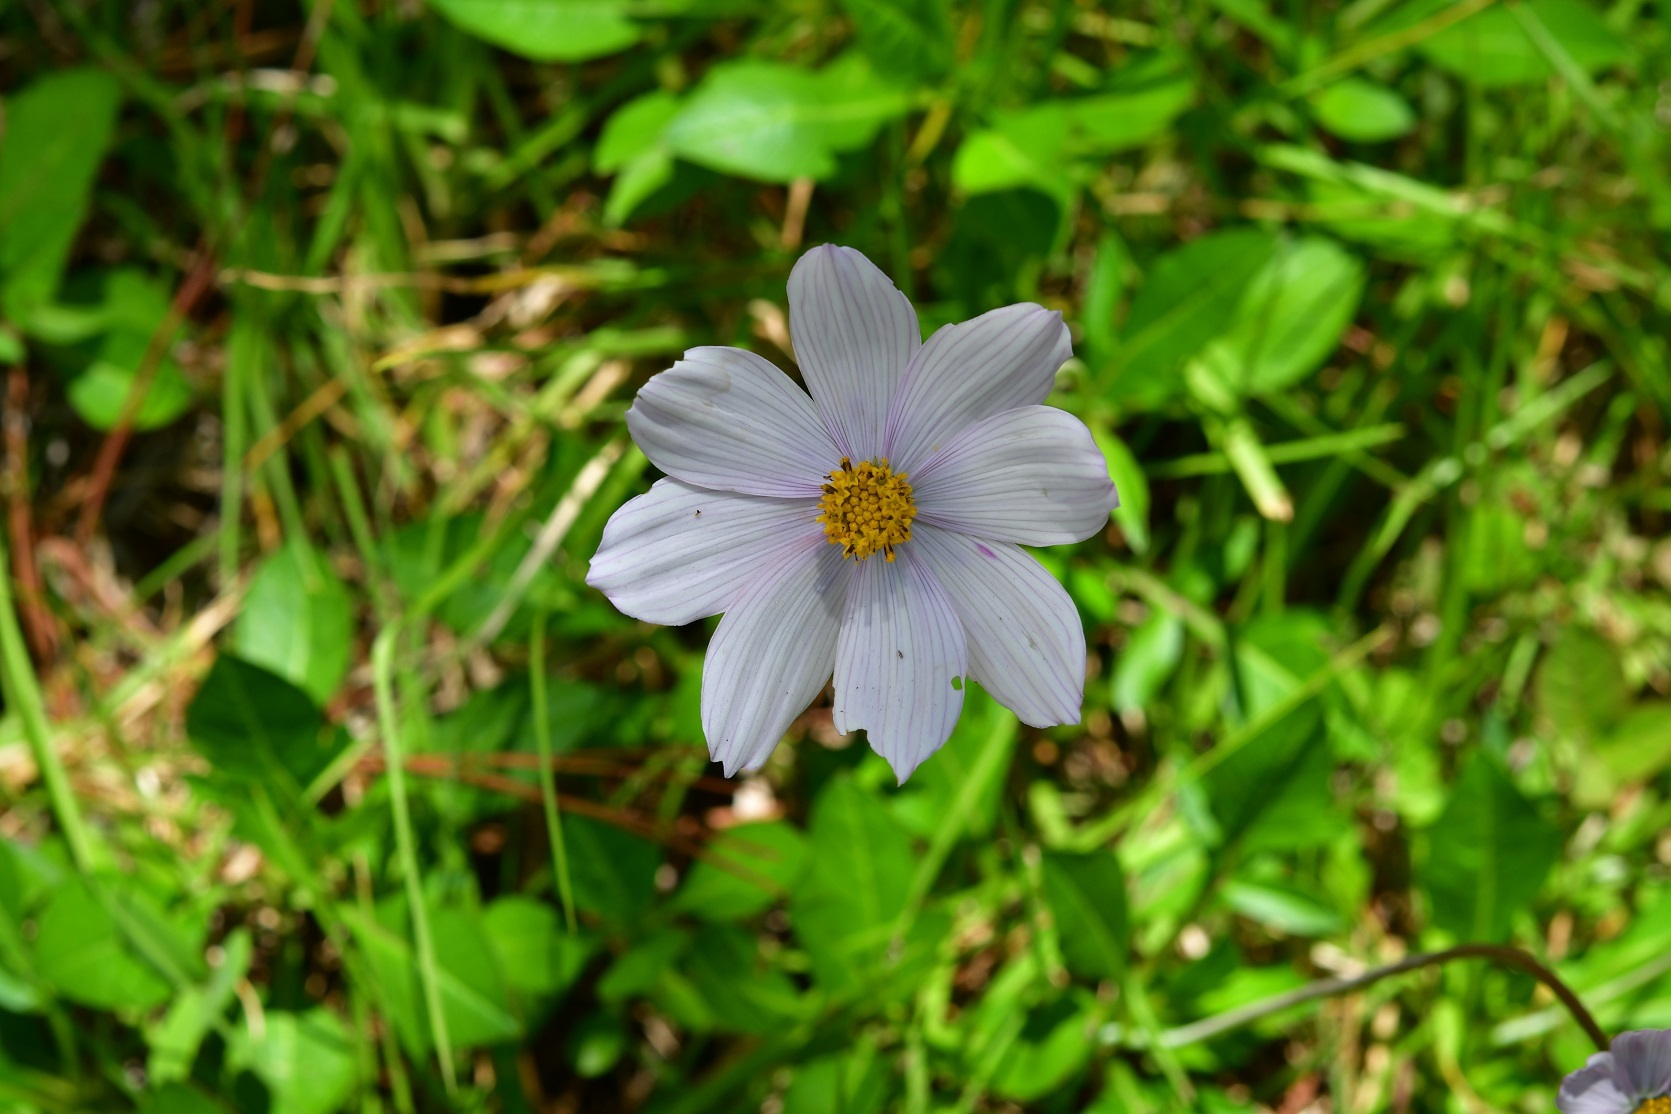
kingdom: Plantae
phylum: Tracheophyta
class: Magnoliopsida
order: Asterales
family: Asteraceae
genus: Cosmos
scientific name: Cosmos diversifolius
